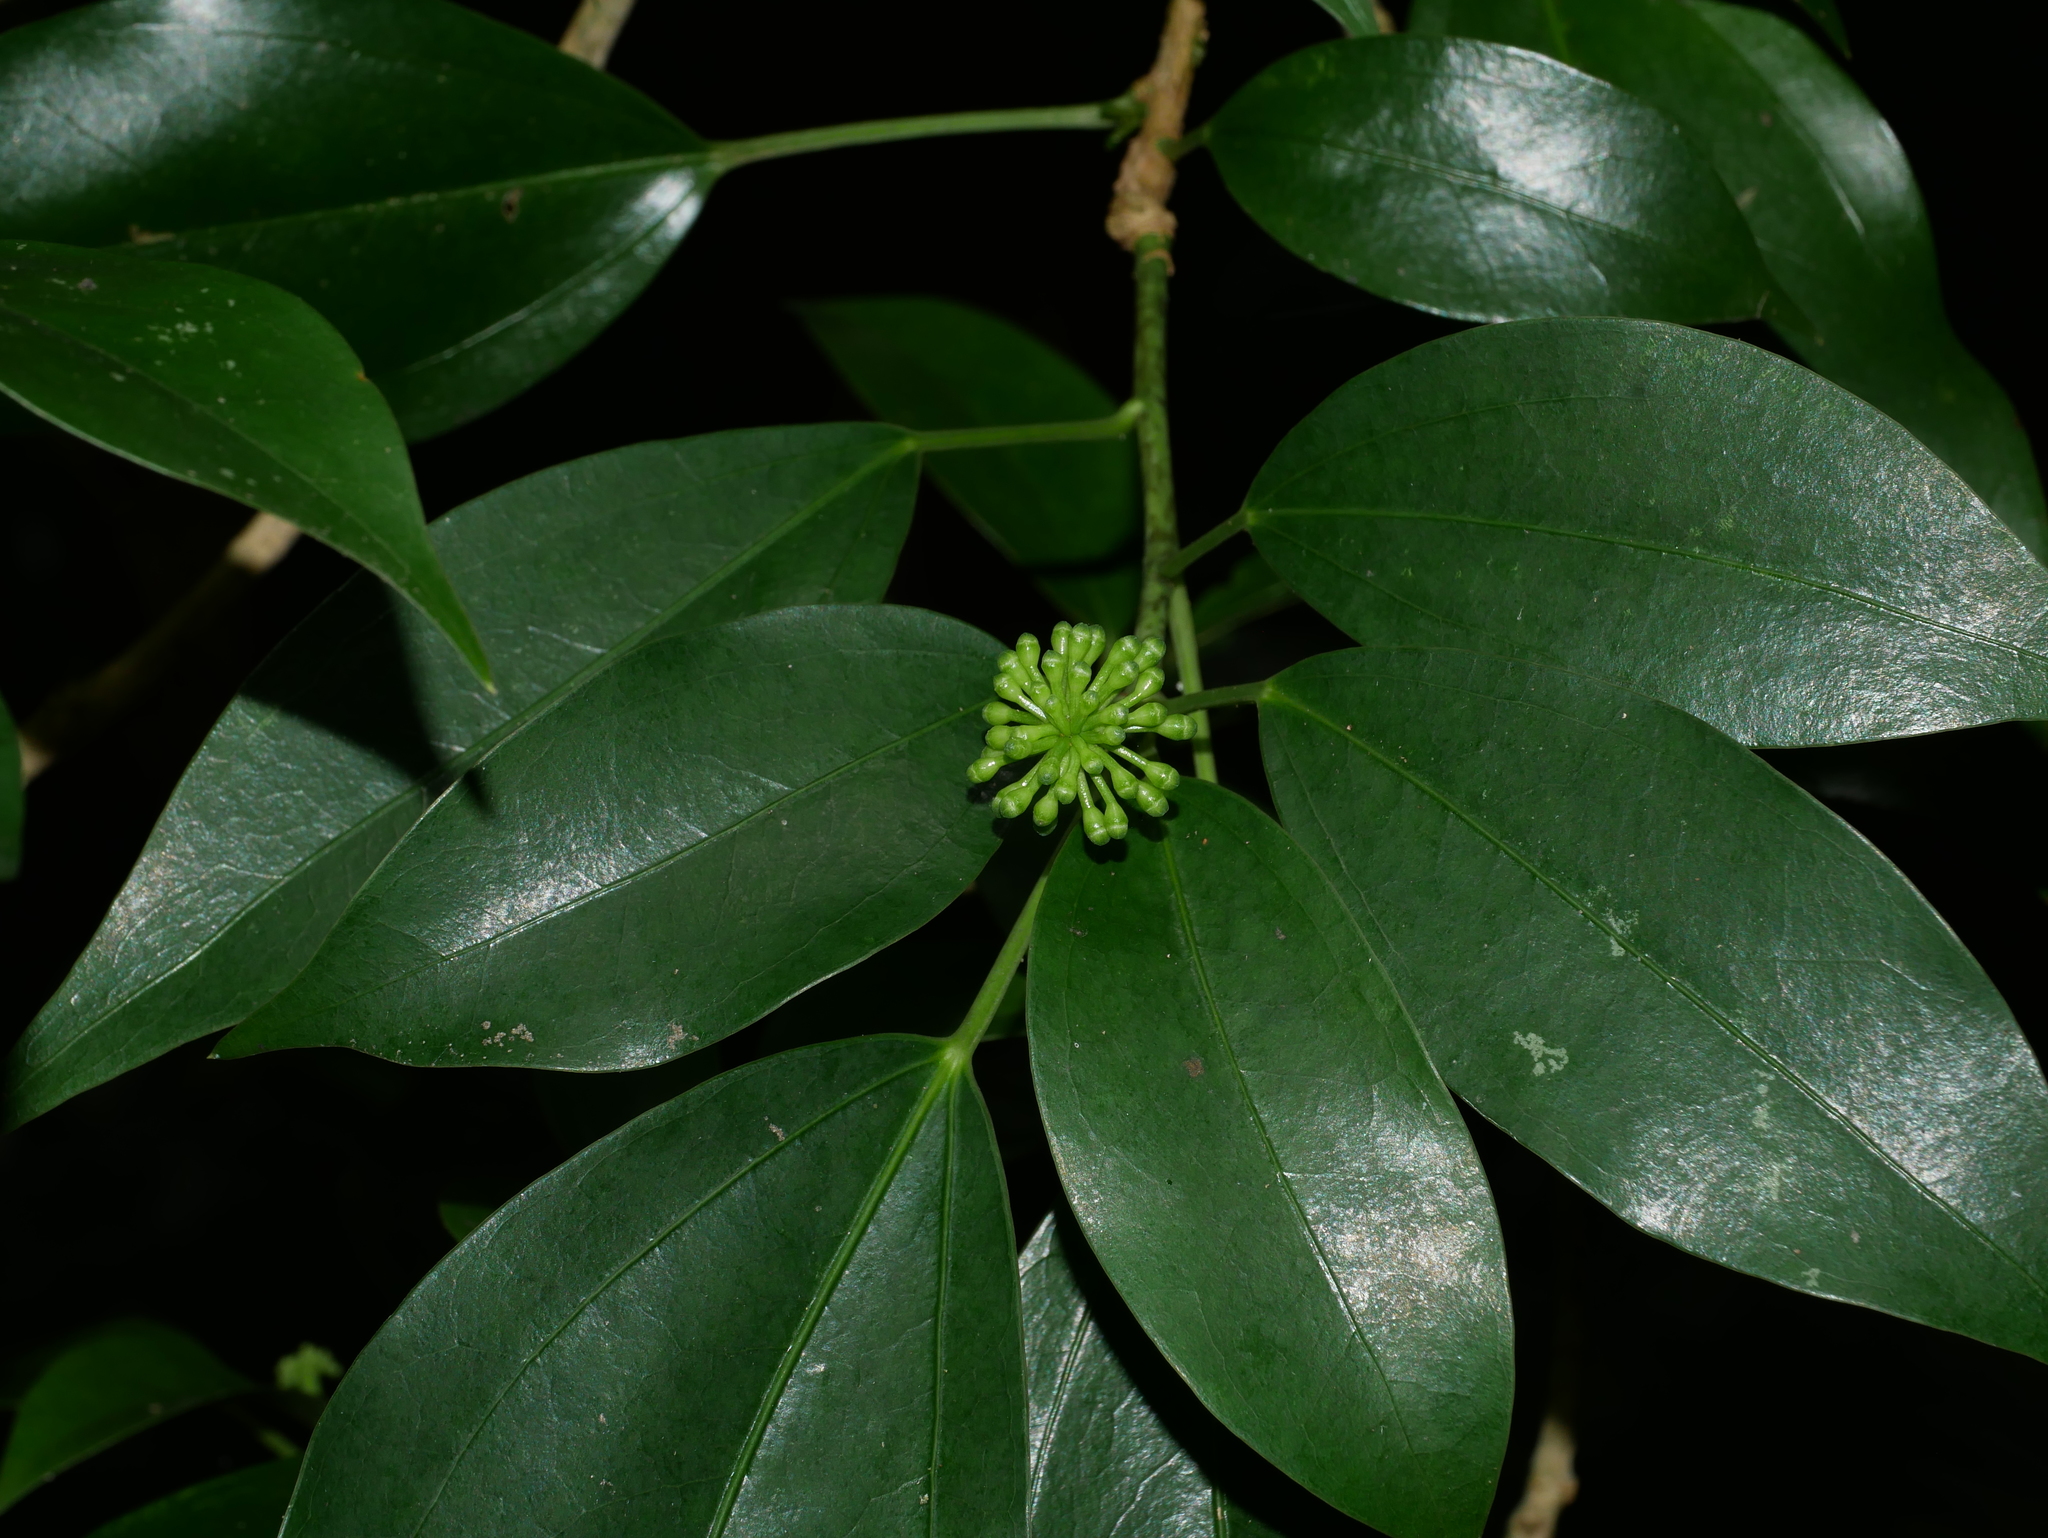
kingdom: Plantae
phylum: Tracheophyta
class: Magnoliopsida
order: Apiales
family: Araliaceae
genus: Dendropanax
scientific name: Dendropanax dentiger
